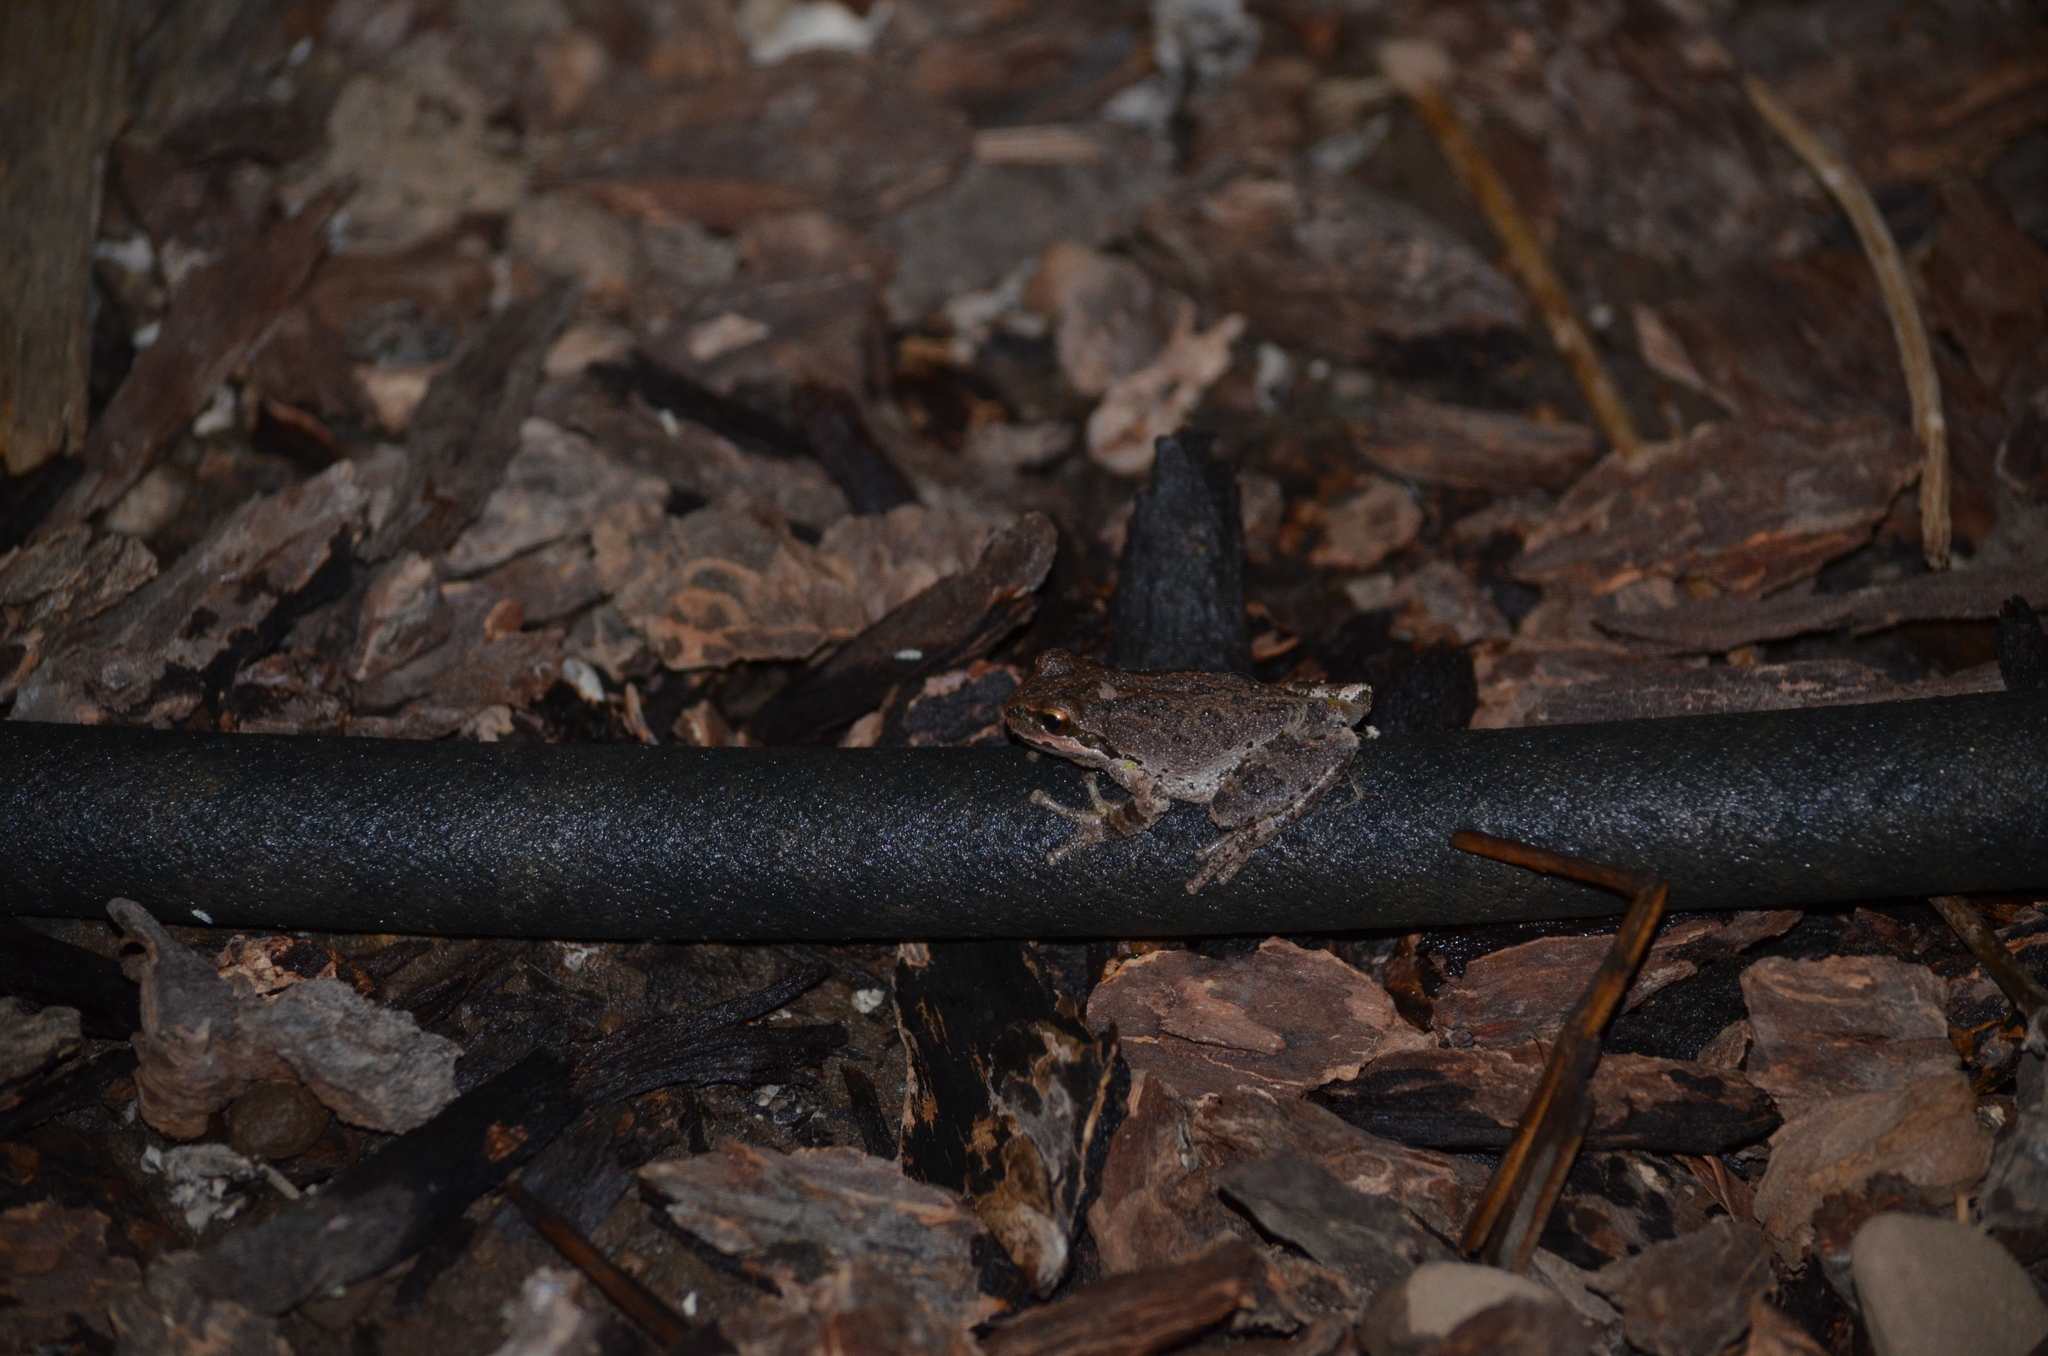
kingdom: Animalia
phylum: Chordata
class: Amphibia
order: Anura
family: Hylidae
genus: Pseudacris
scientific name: Pseudacris regilla
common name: Pacific chorus frog
